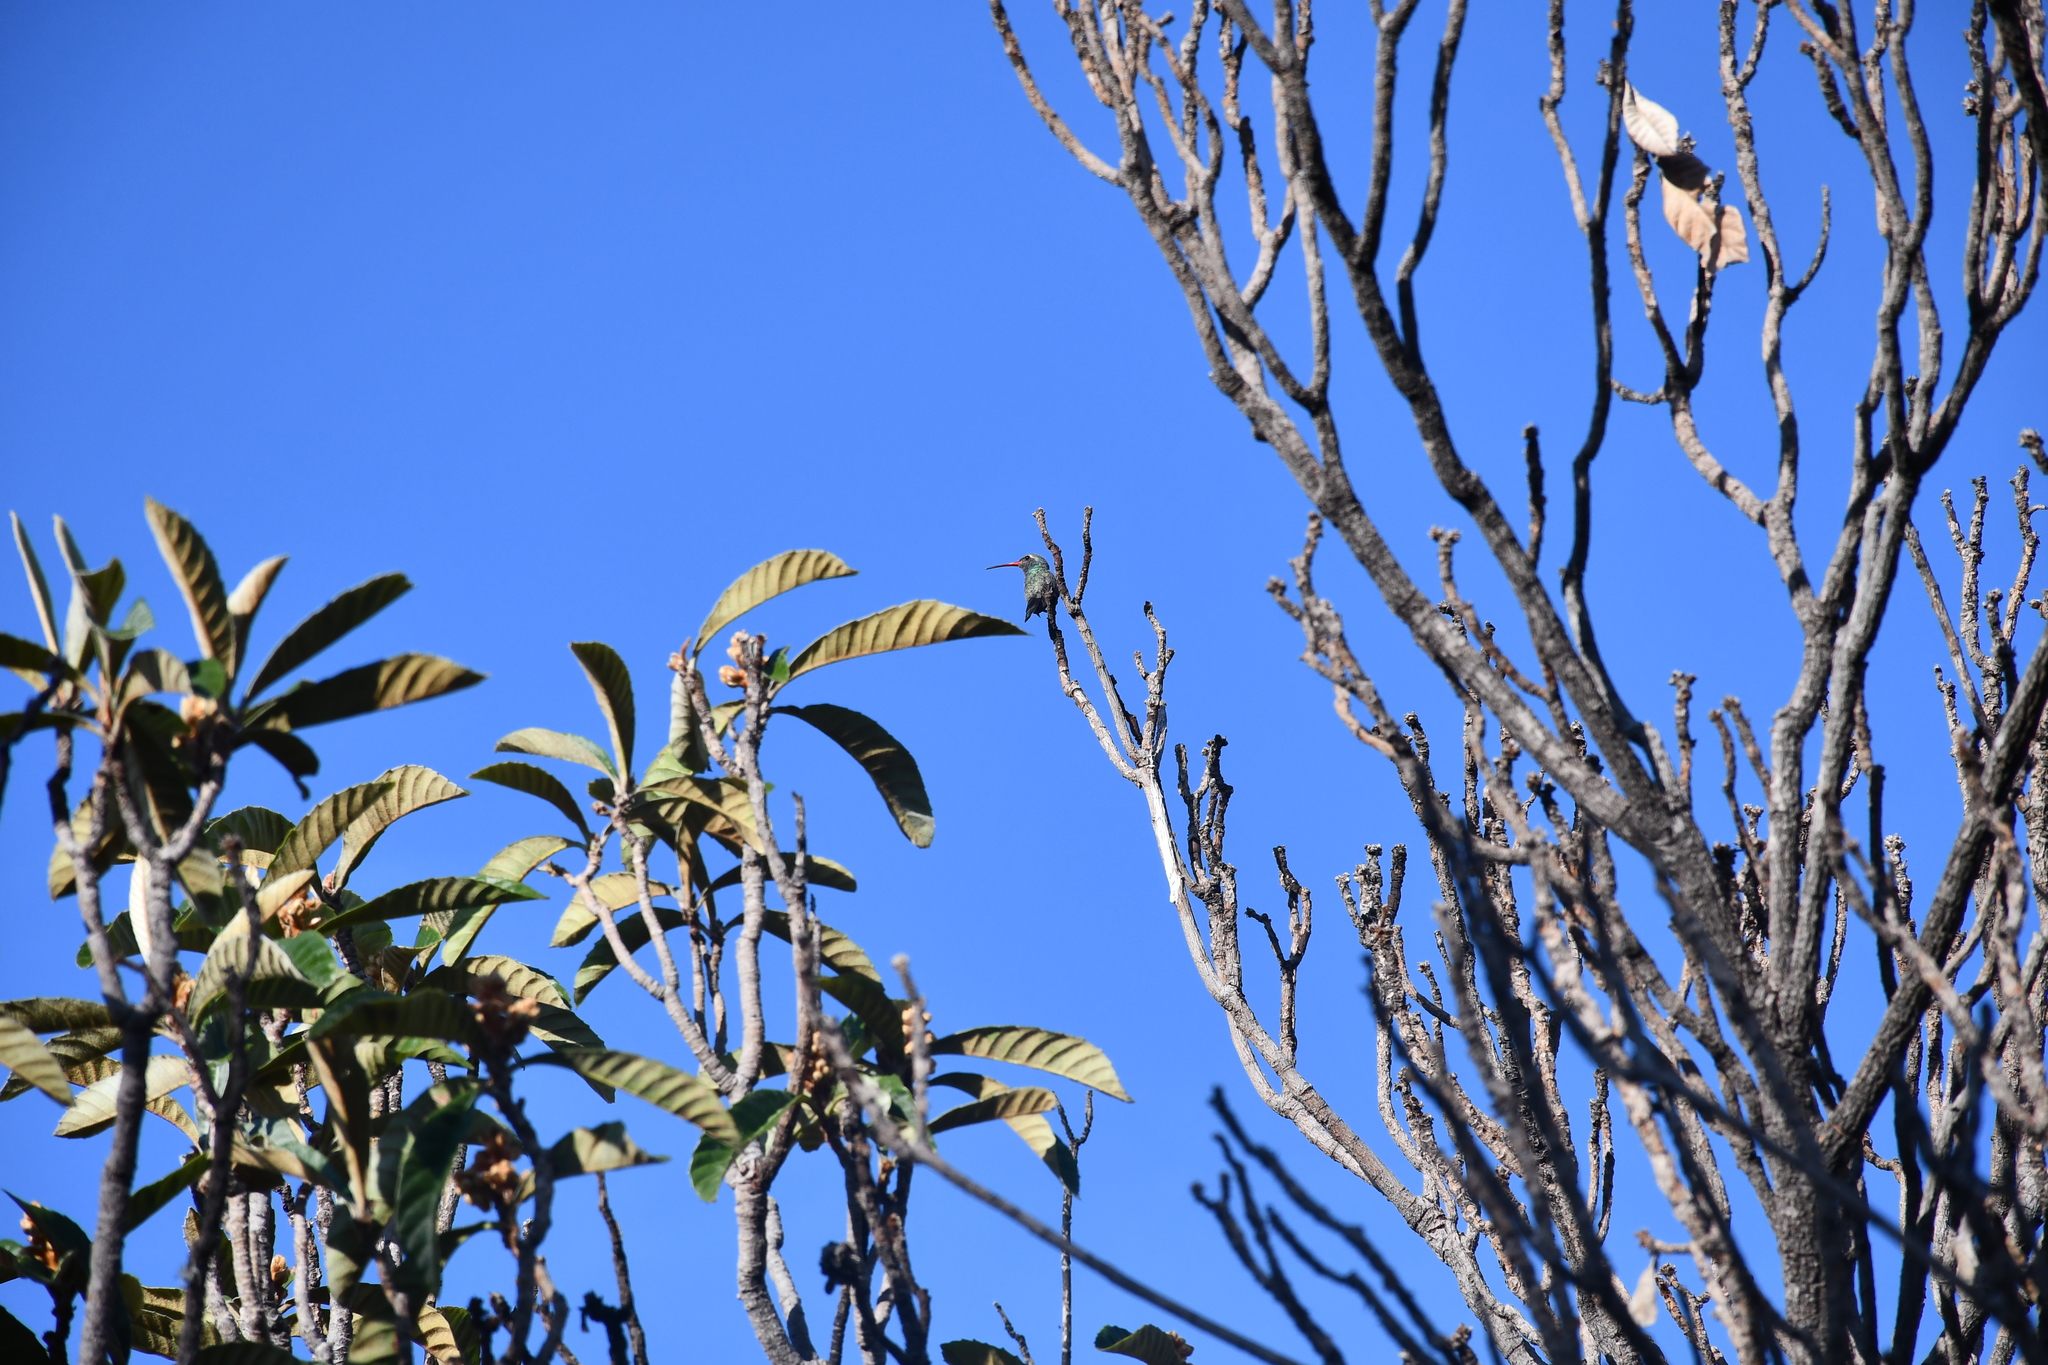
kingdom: Animalia
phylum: Chordata
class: Aves
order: Apodiformes
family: Trochilidae
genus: Cynanthus
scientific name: Cynanthus latirostris
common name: Broad-billed hummingbird
